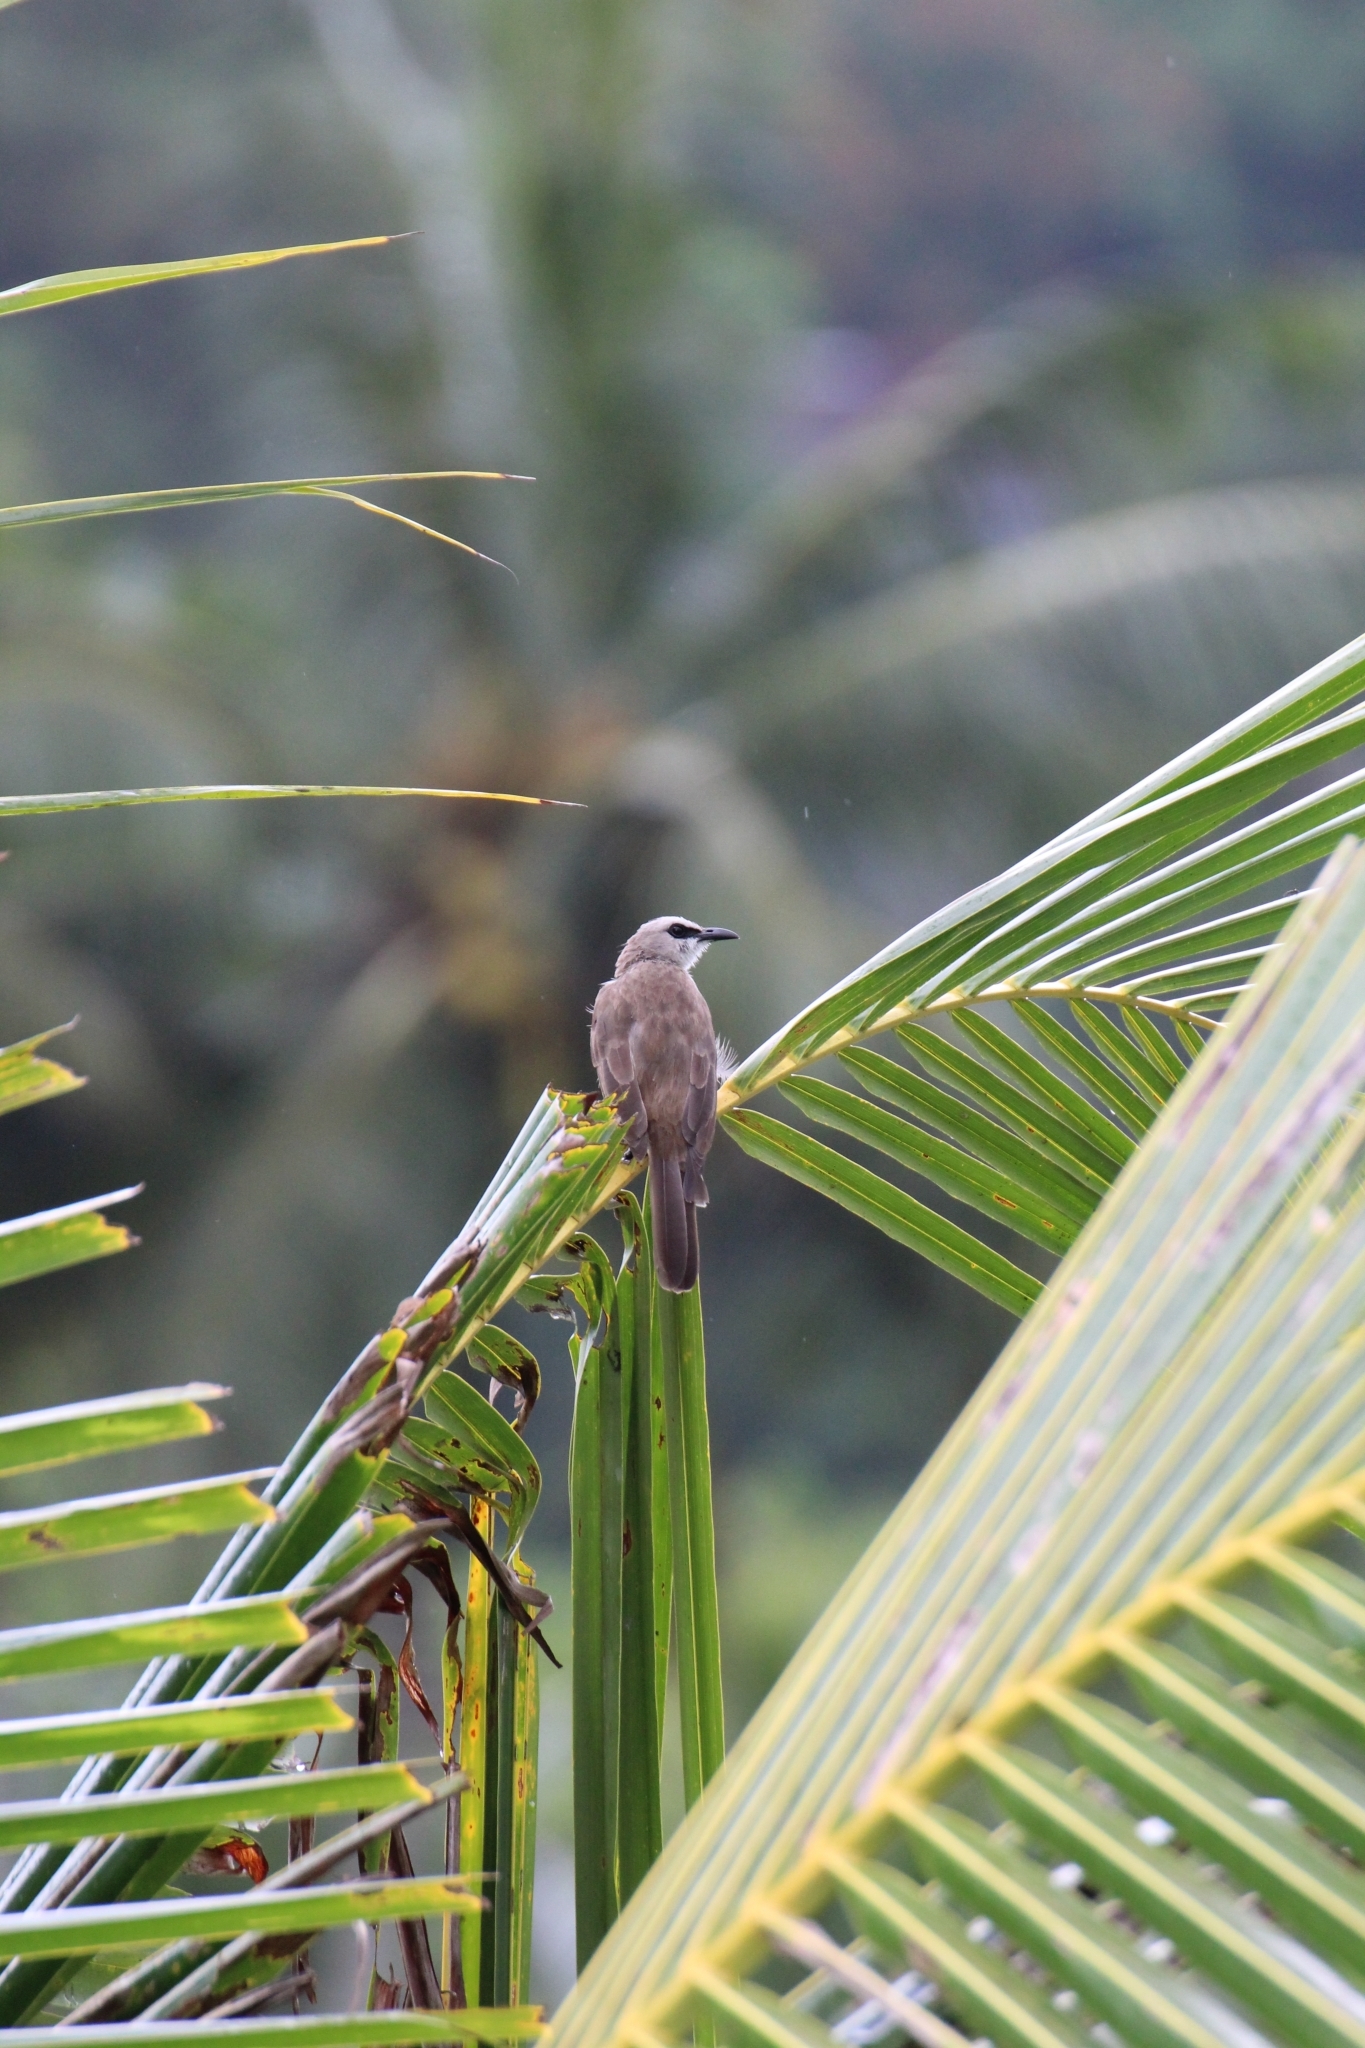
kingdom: Animalia
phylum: Chordata
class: Aves
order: Passeriformes
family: Pycnonotidae
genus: Pycnonotus
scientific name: Pycnonotus goiavier
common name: Yellow-vented bulbul
